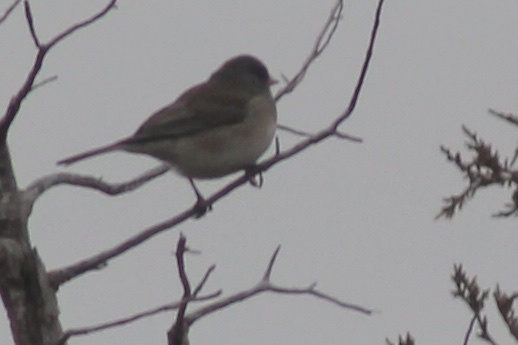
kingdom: Animalia
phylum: Chordata
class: Aves
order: Passeriformes
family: Passerellidae
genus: Junco
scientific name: Junco hyemalis
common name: Dark-eyed junco
